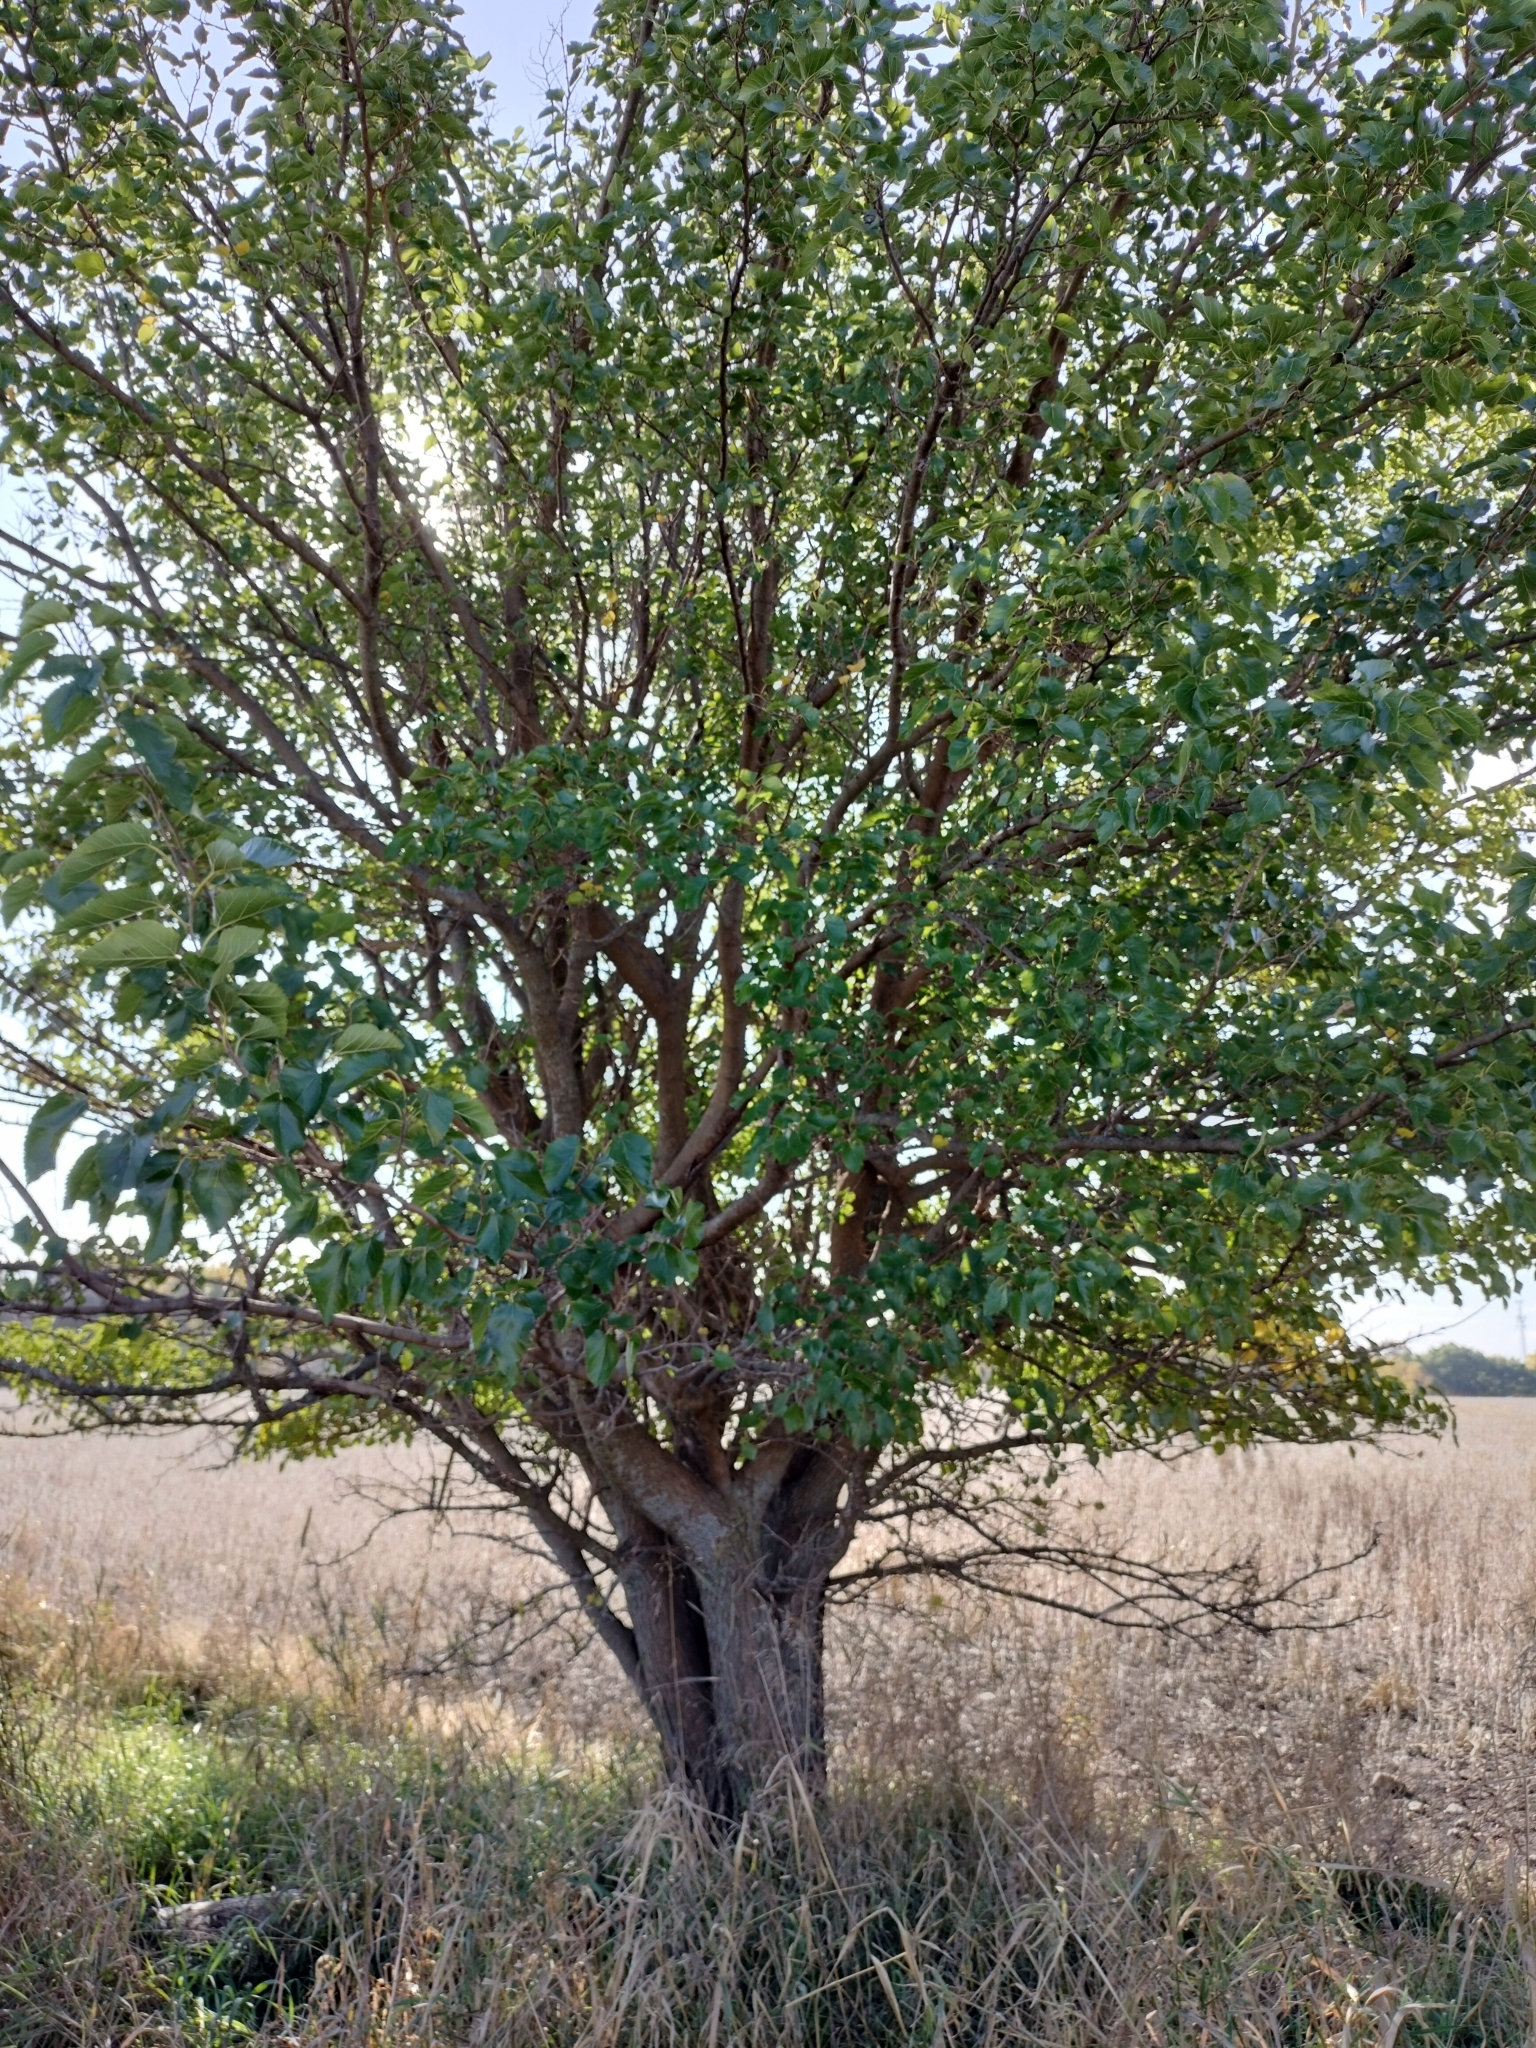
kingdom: Plantae
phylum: Tracheophyta
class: Magnoliopsida
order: Rosales
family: Moraceae
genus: Morus
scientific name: Morus alba
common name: White mulberry
